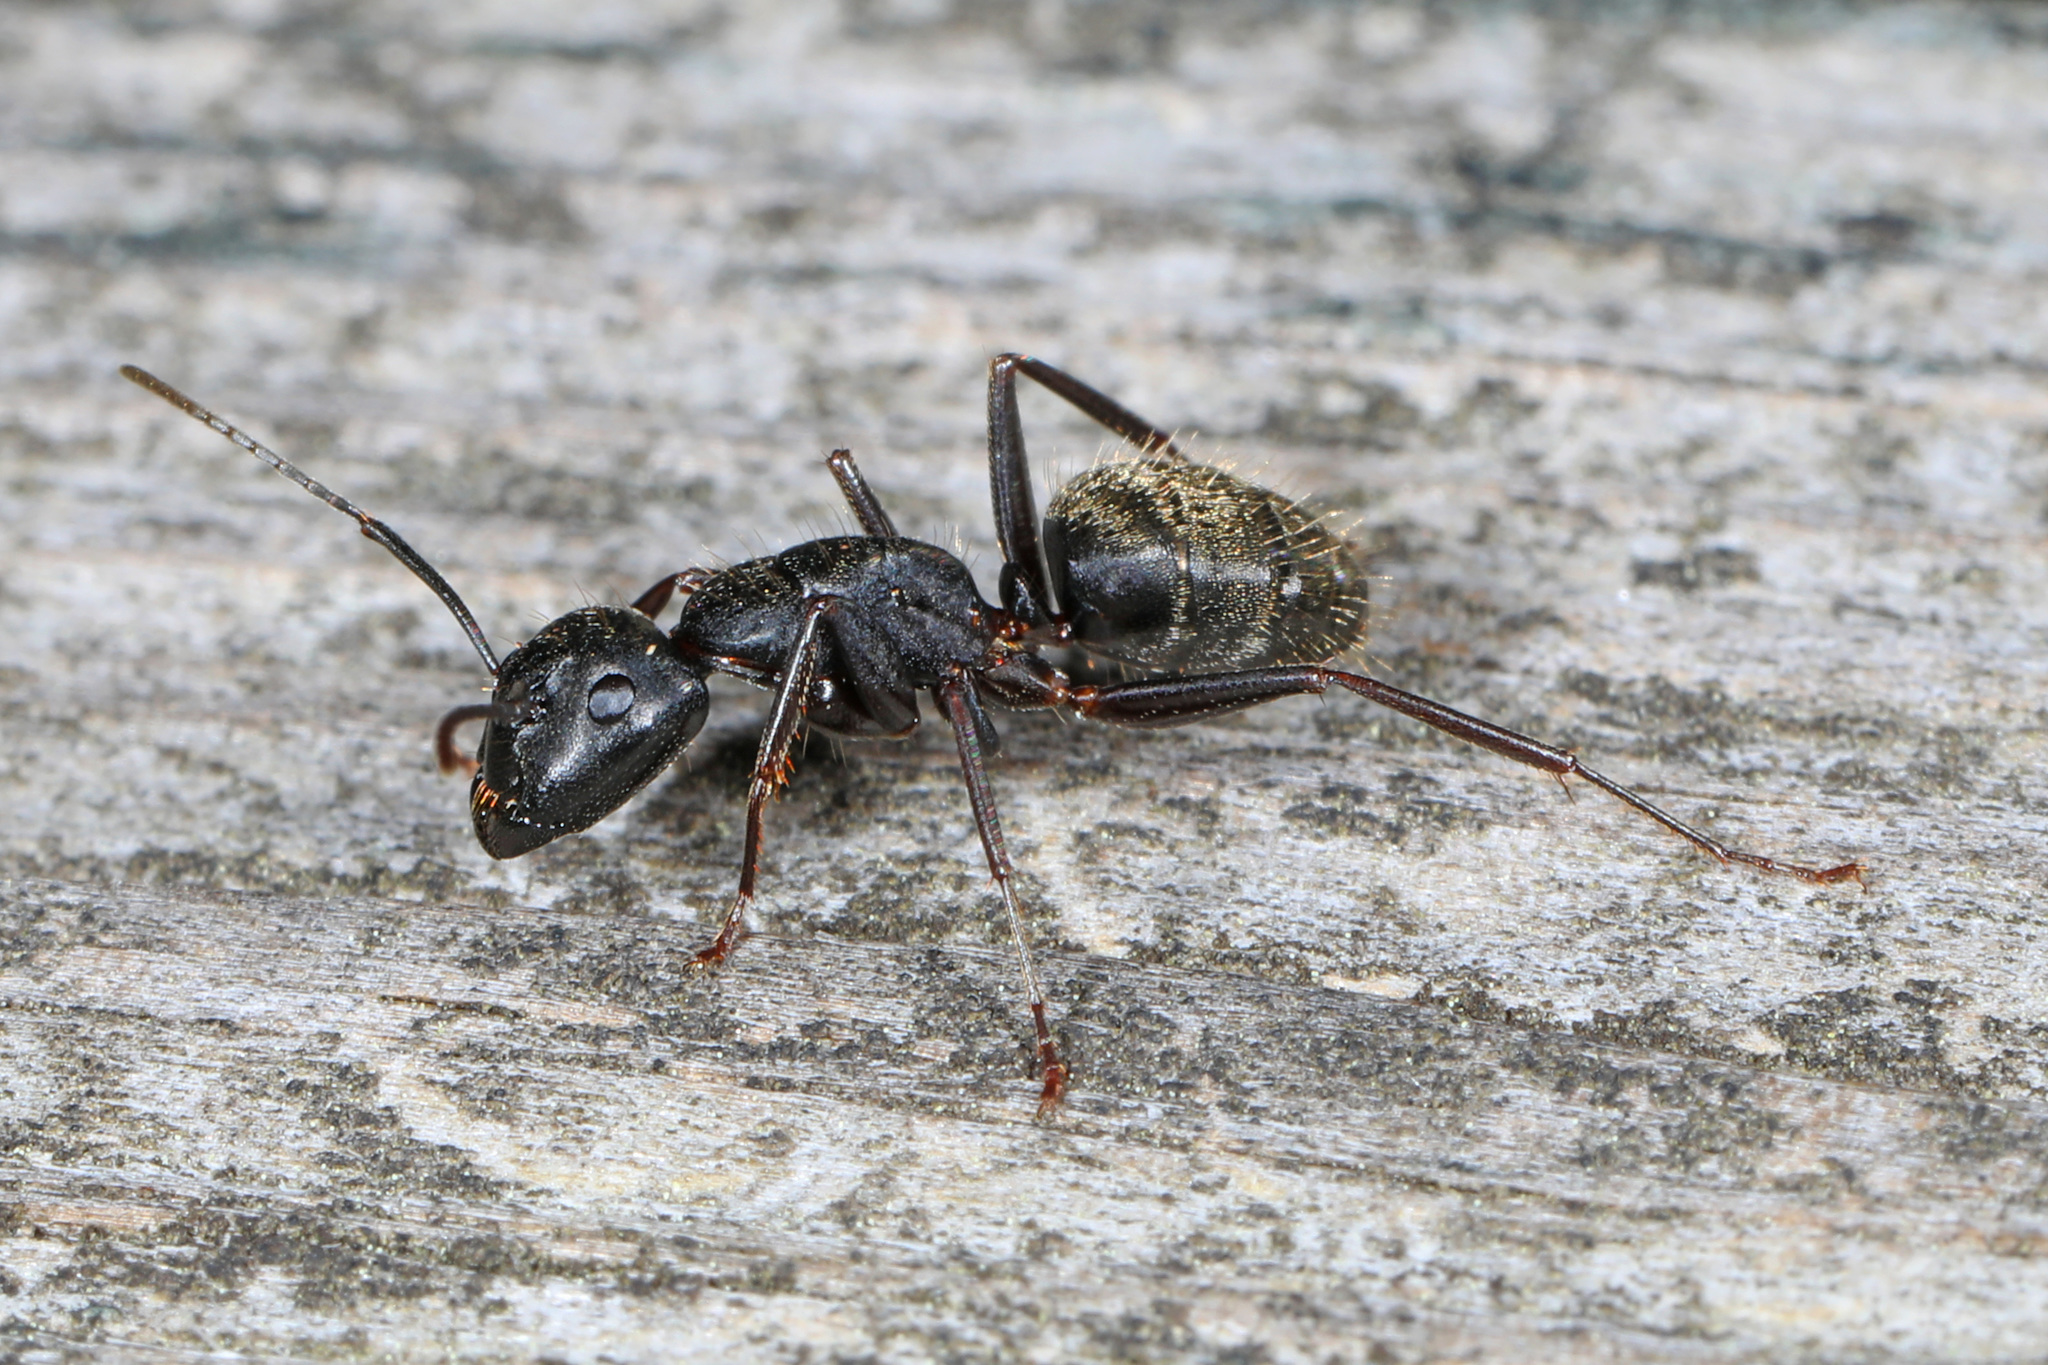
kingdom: Animalia
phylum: Arthropoda
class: Insecta
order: Hymenoptera
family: Formicidae
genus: Camponotus
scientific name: Camponotus pennsylvanicus
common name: Black carpenter ant
